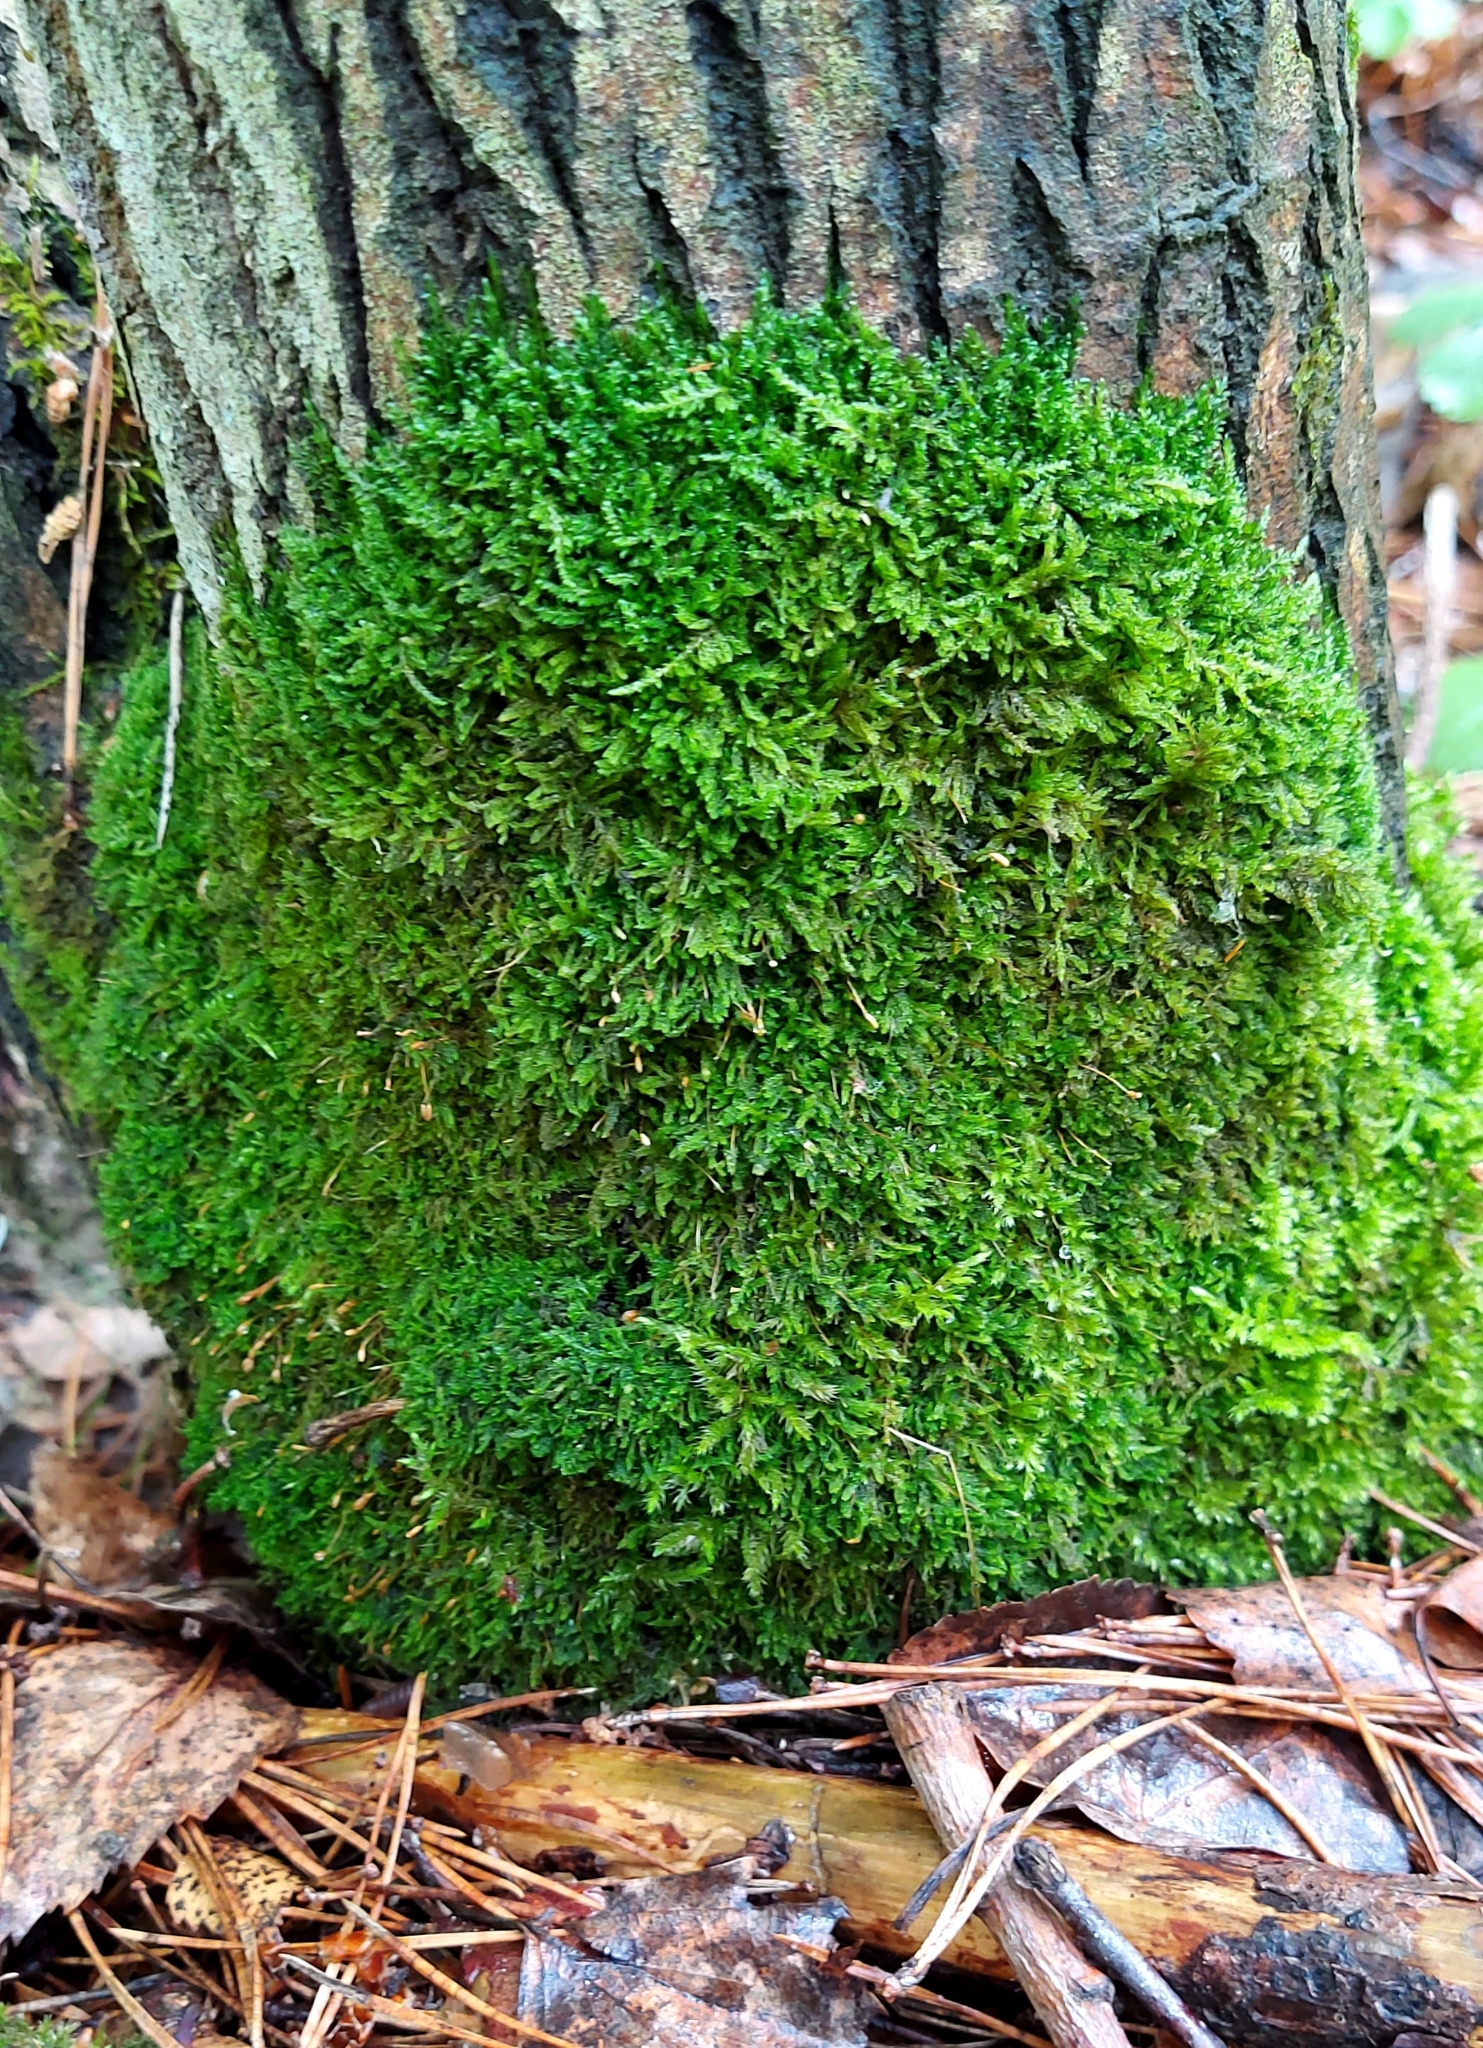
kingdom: Plantae
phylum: Bryophyta
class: Bryopsida
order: Hypnales
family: Hypnaceae
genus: Hypnum
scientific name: Hypnum cupressiforme
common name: Cypress-leaved plait-moss
